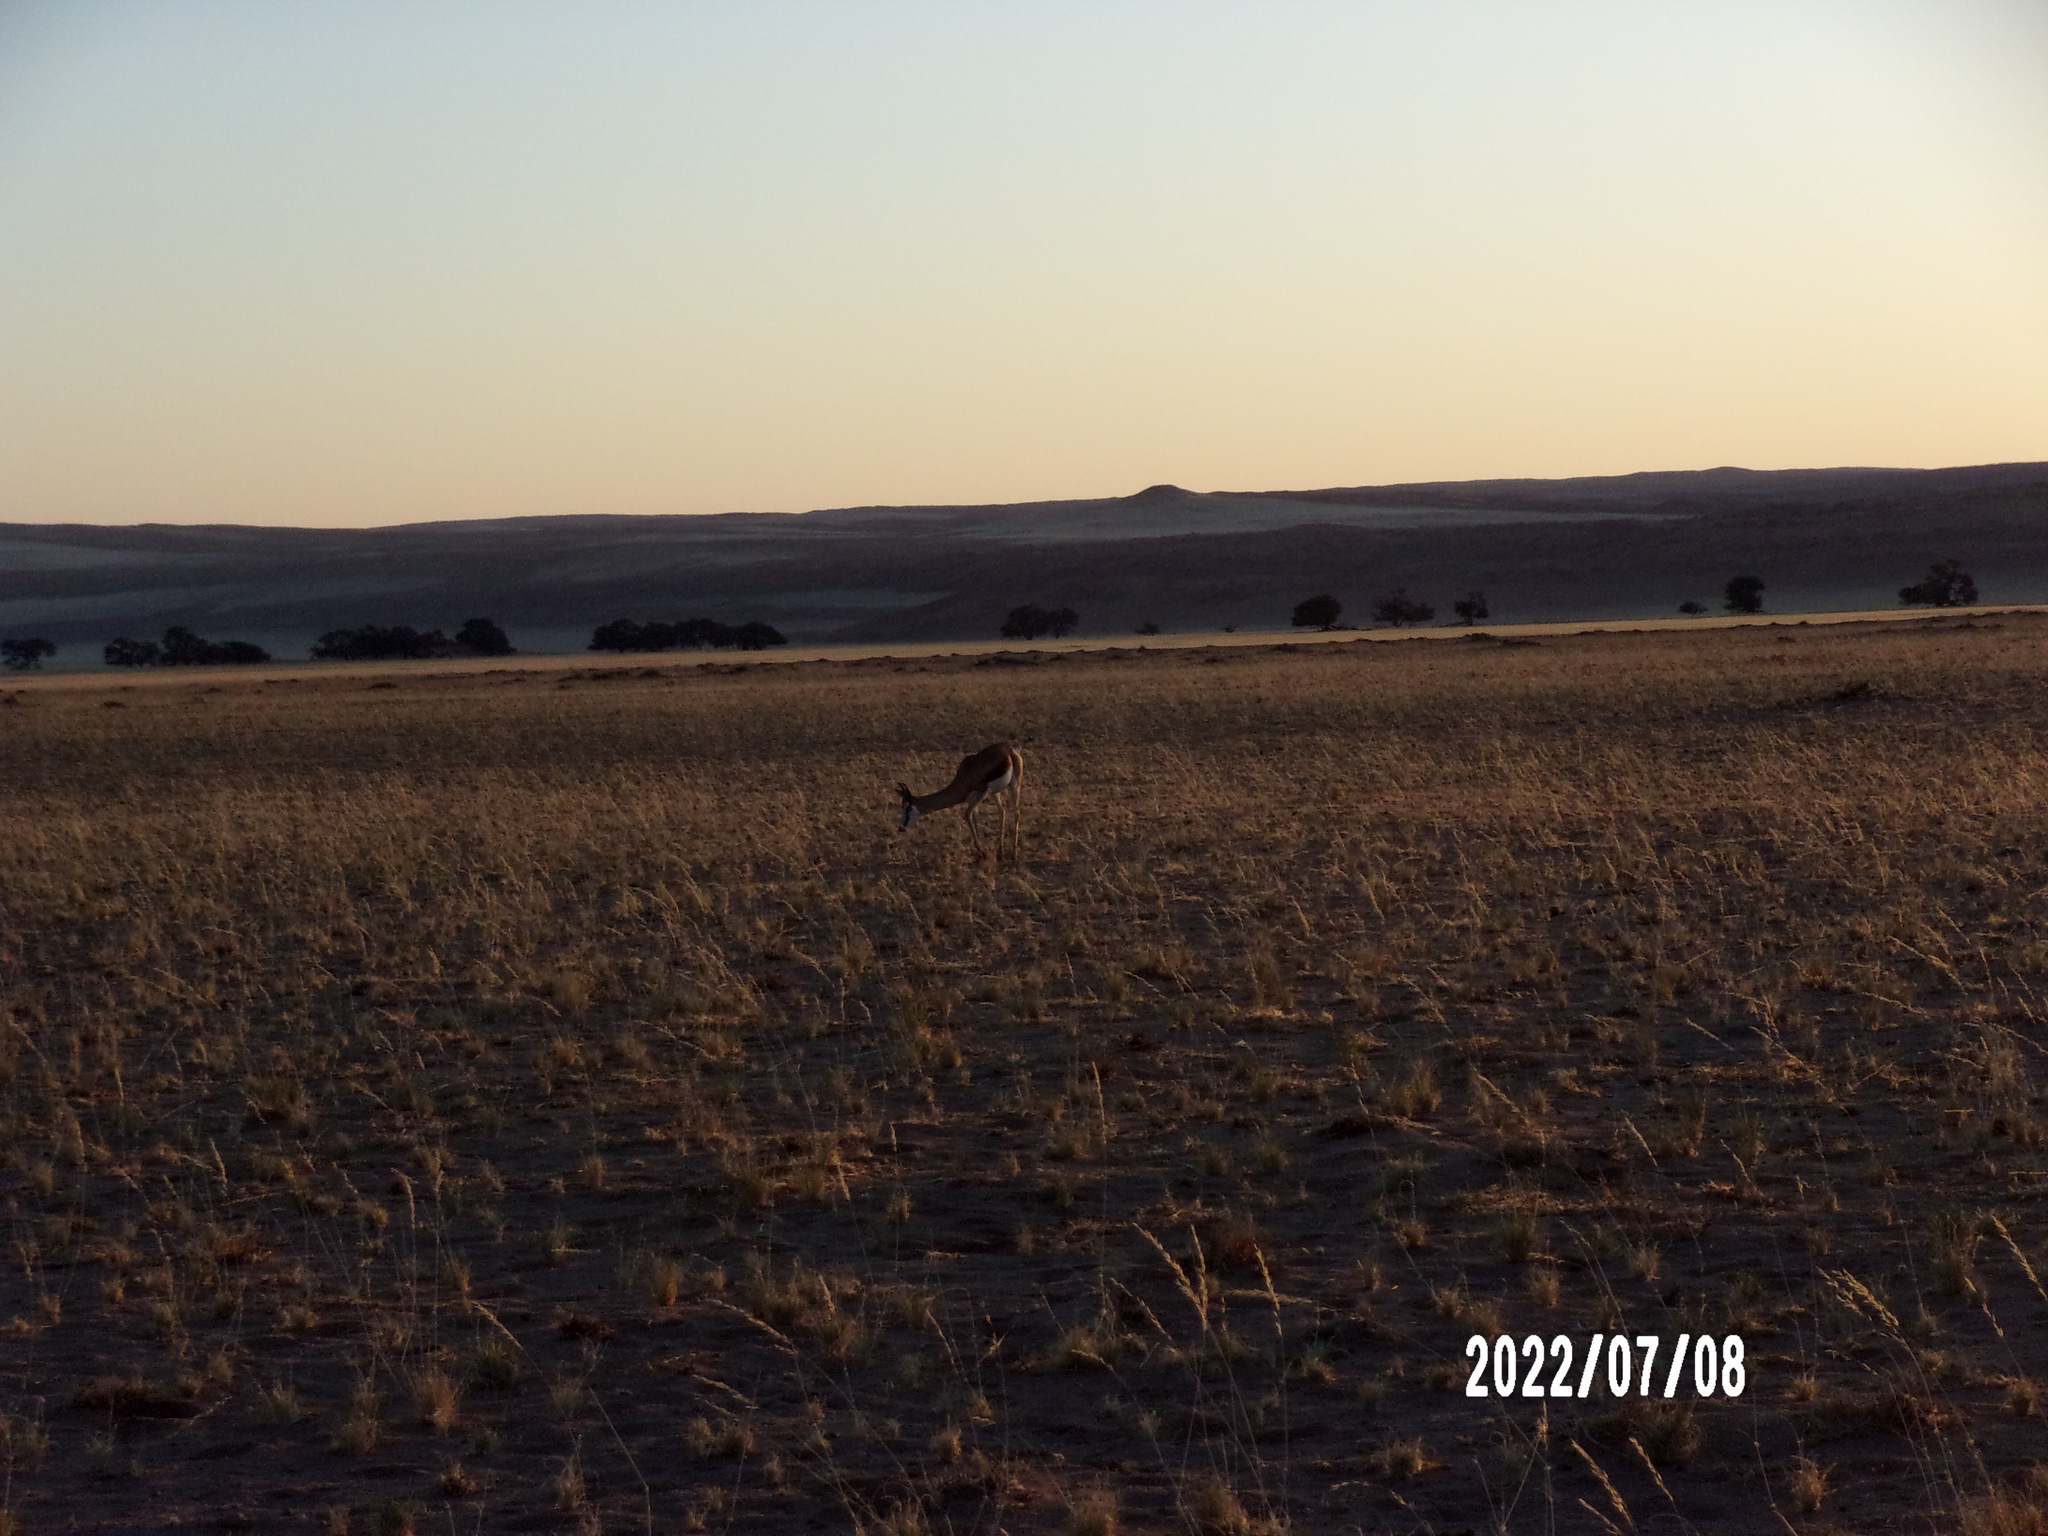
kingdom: Animalia
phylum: Chordata
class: Mammalia
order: Artiodactyla
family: Bovidae
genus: Antidorcas
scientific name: Antidorcas marsupialis
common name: Springbok
